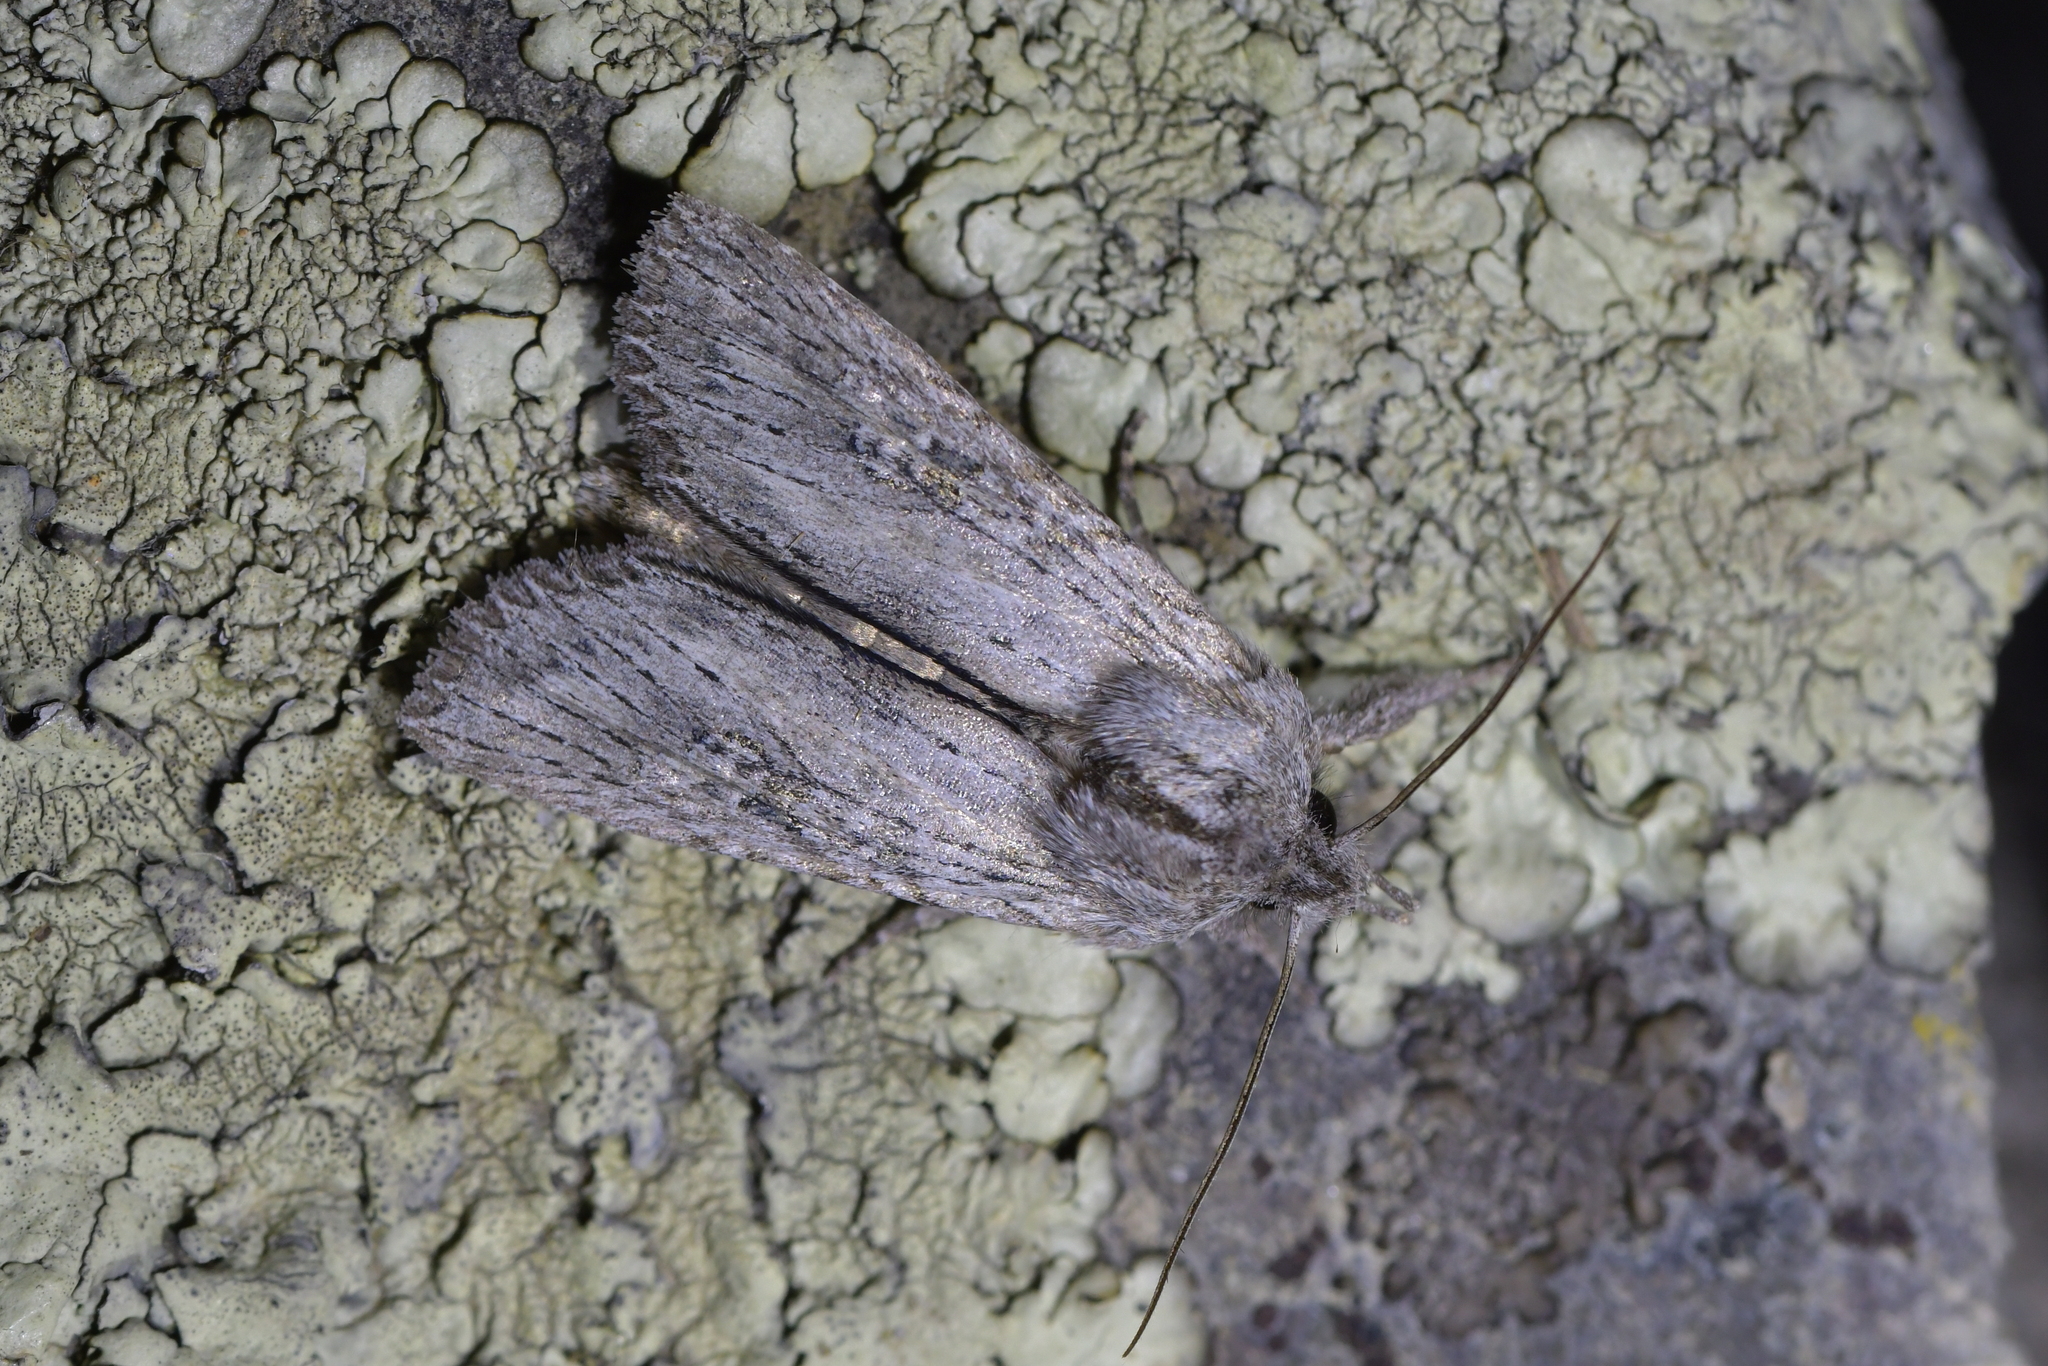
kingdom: Animalia
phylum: Arthropoda
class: Insecta
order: Lepidoptera
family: Noctuidae
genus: Physetica
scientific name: Physetica phricias
